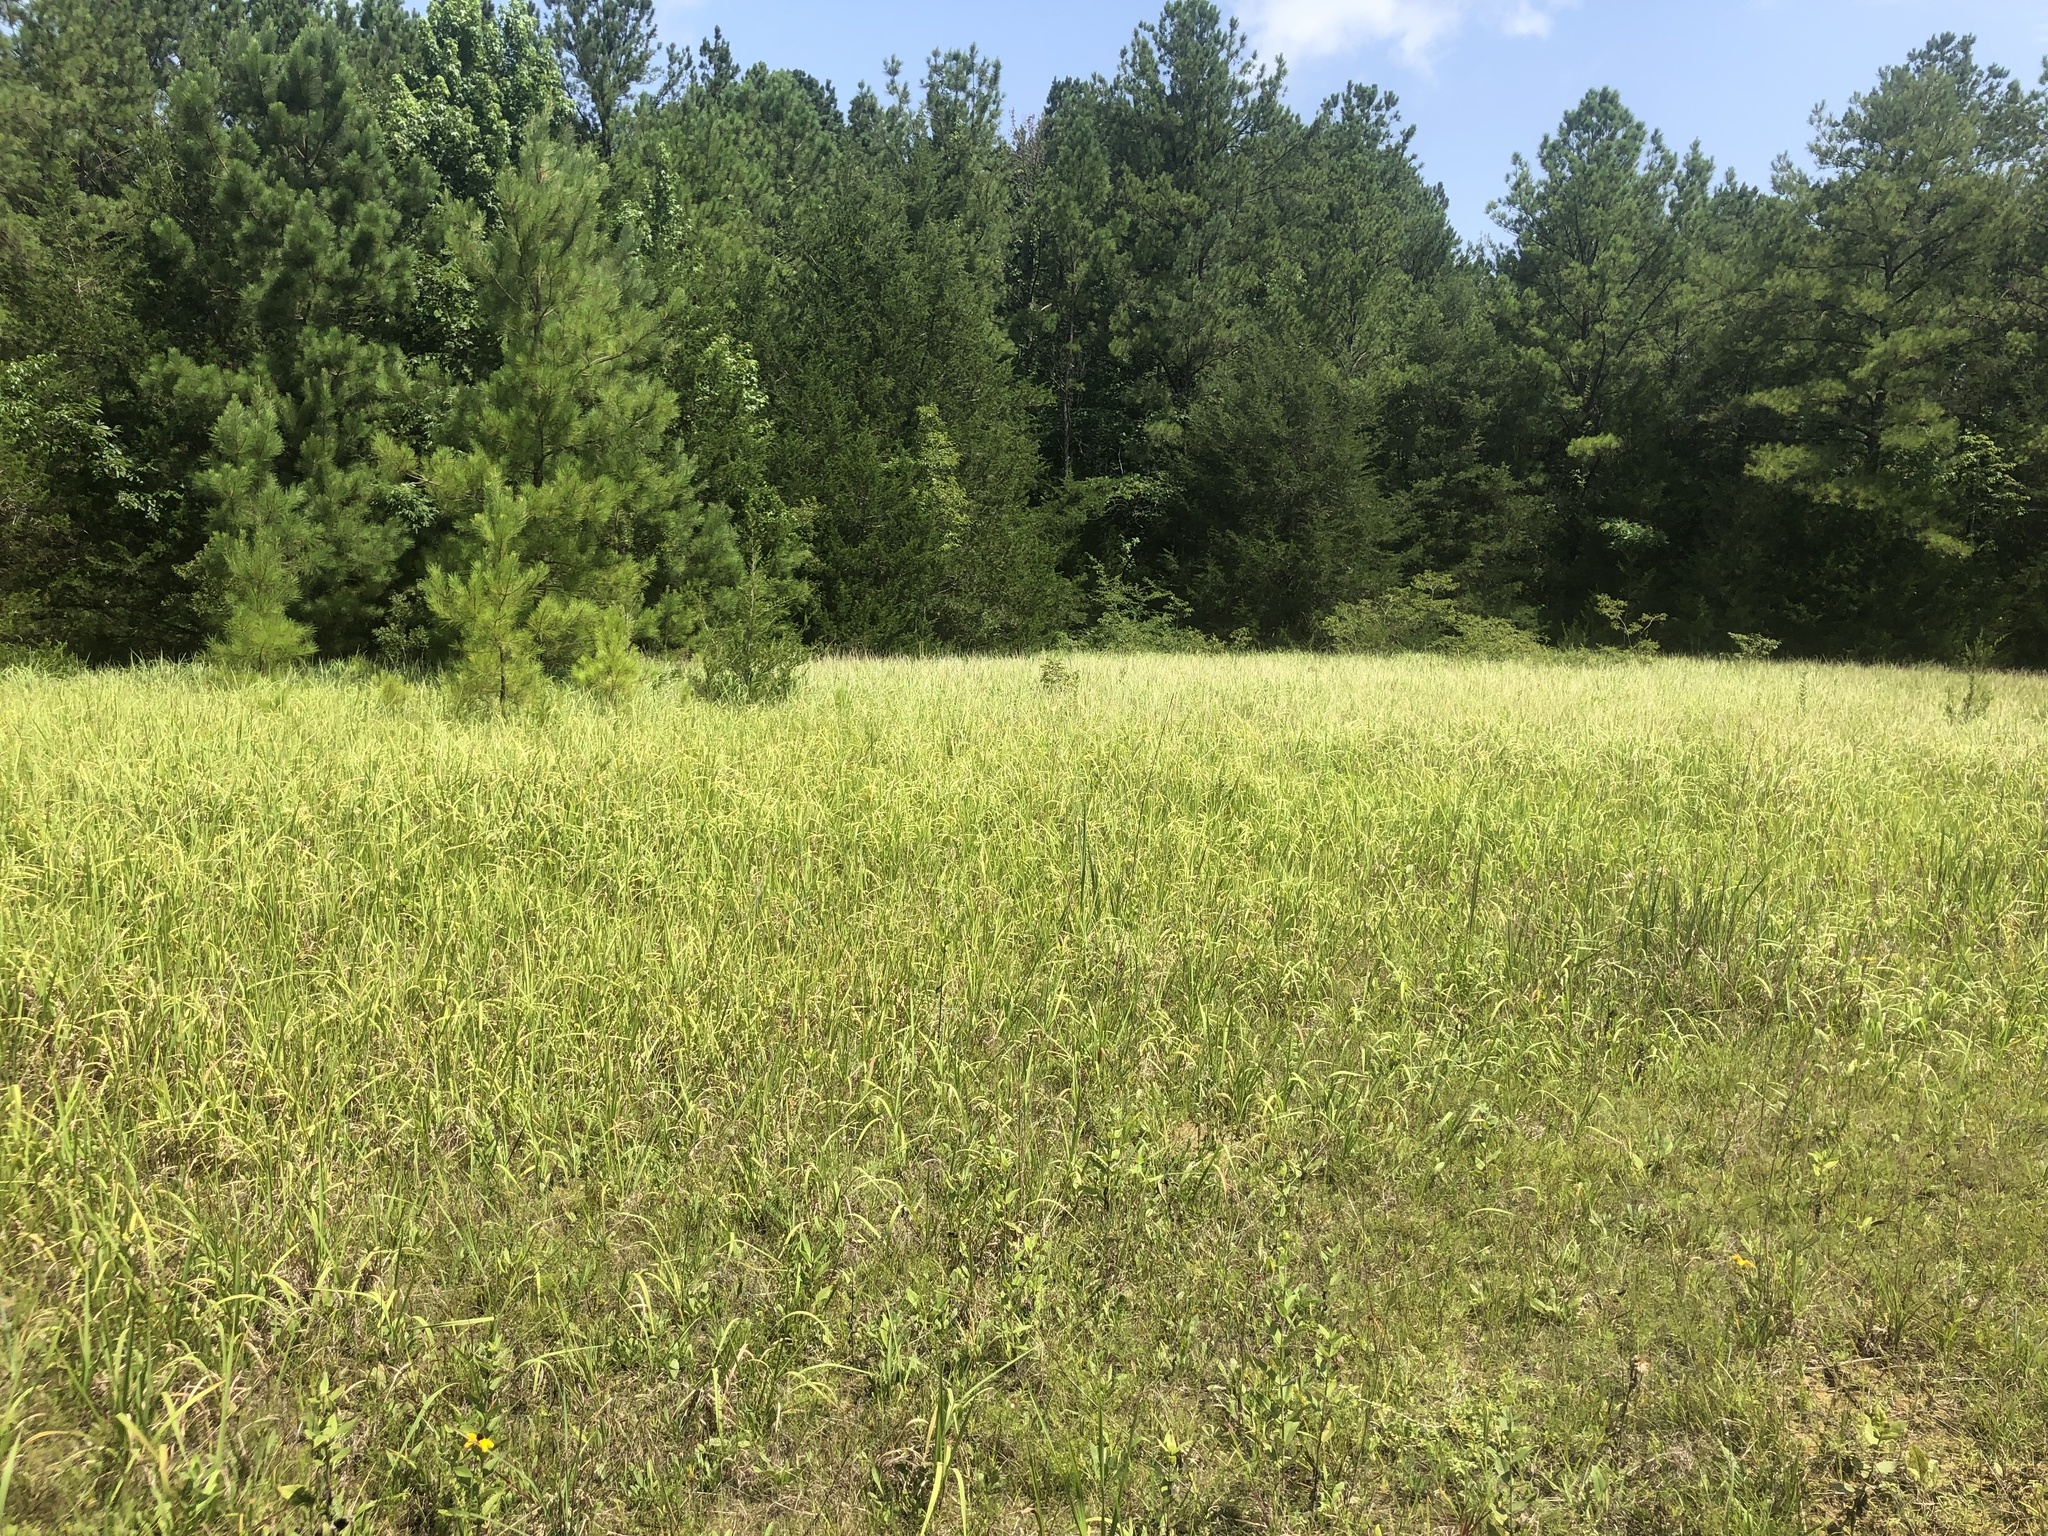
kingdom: Plantae
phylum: Tracheophyta
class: Liliopsida
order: Poales
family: Poaceae
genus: Imperata
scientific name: Imperata cylindrica
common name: Cogongrass
